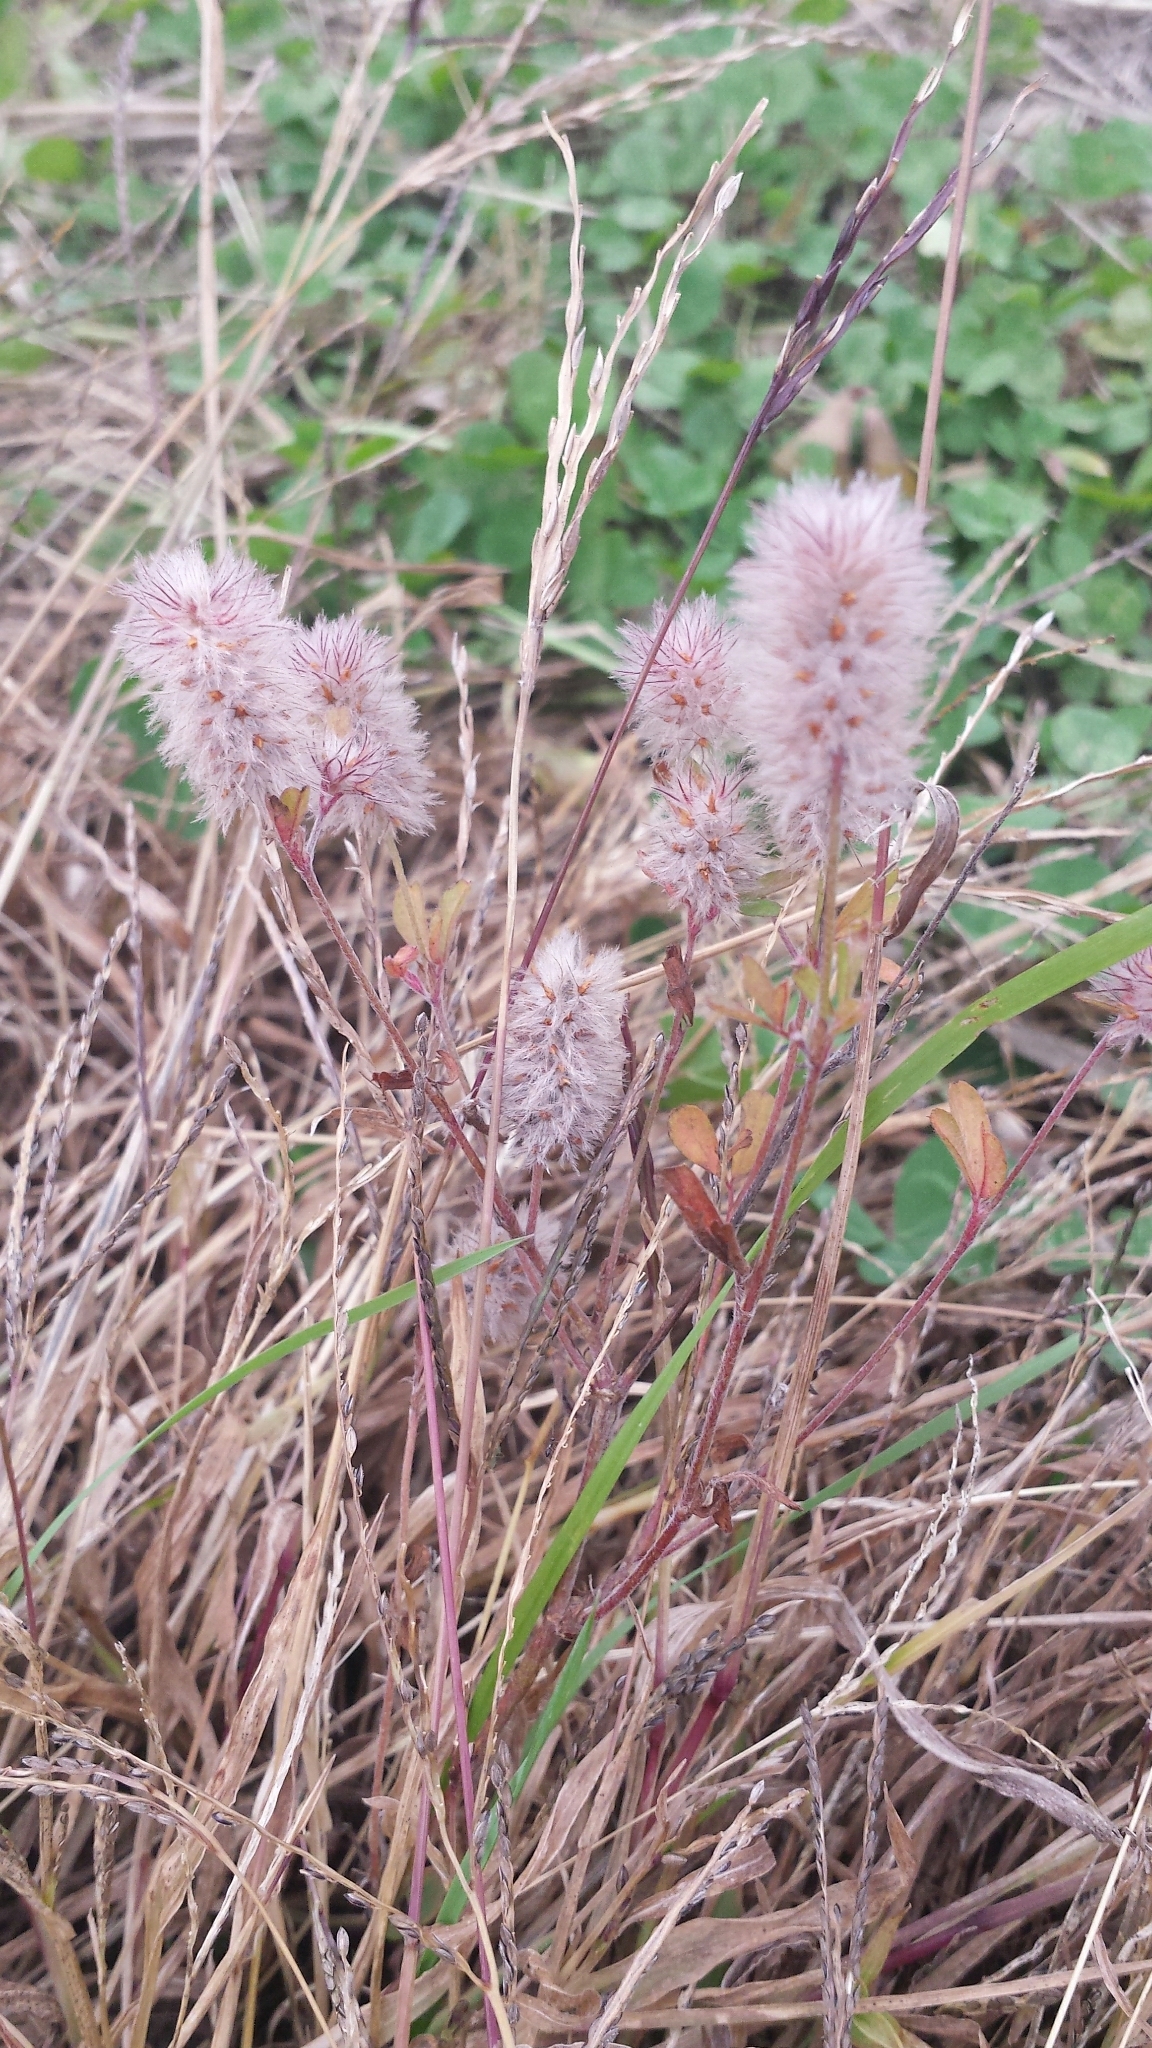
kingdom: Plantae
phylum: Tracheophyta
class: Magnoliopsida
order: Fabales
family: Fabaceae
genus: Trifolium
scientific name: Trifolium arvense
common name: Hare's-foot clover
